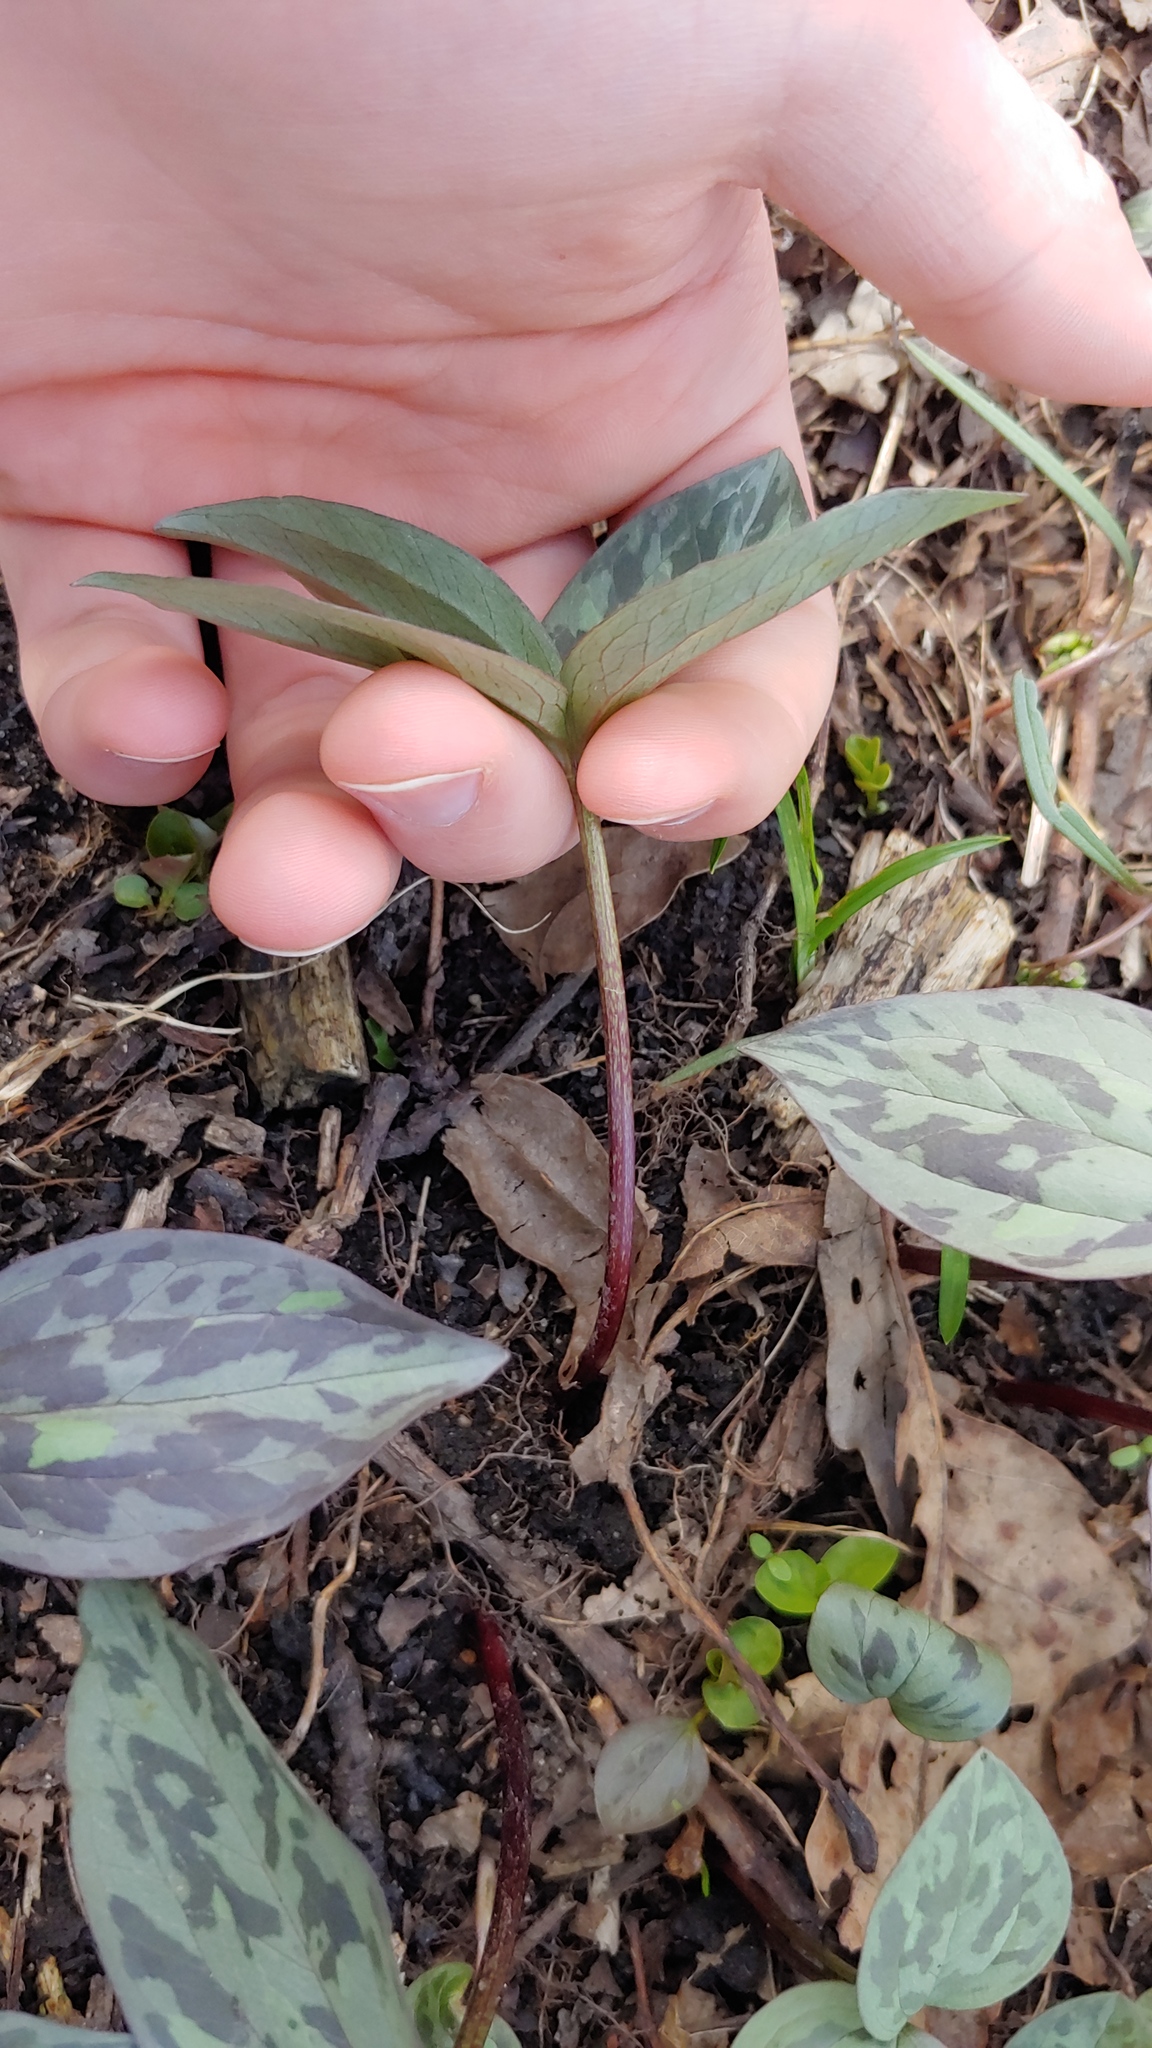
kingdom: Plantae
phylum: Tracheophyta
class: Liliopsida
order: Liliales
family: Melanthiaceae
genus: Trillium
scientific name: Trillium recurvatum
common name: Bloody butcher
